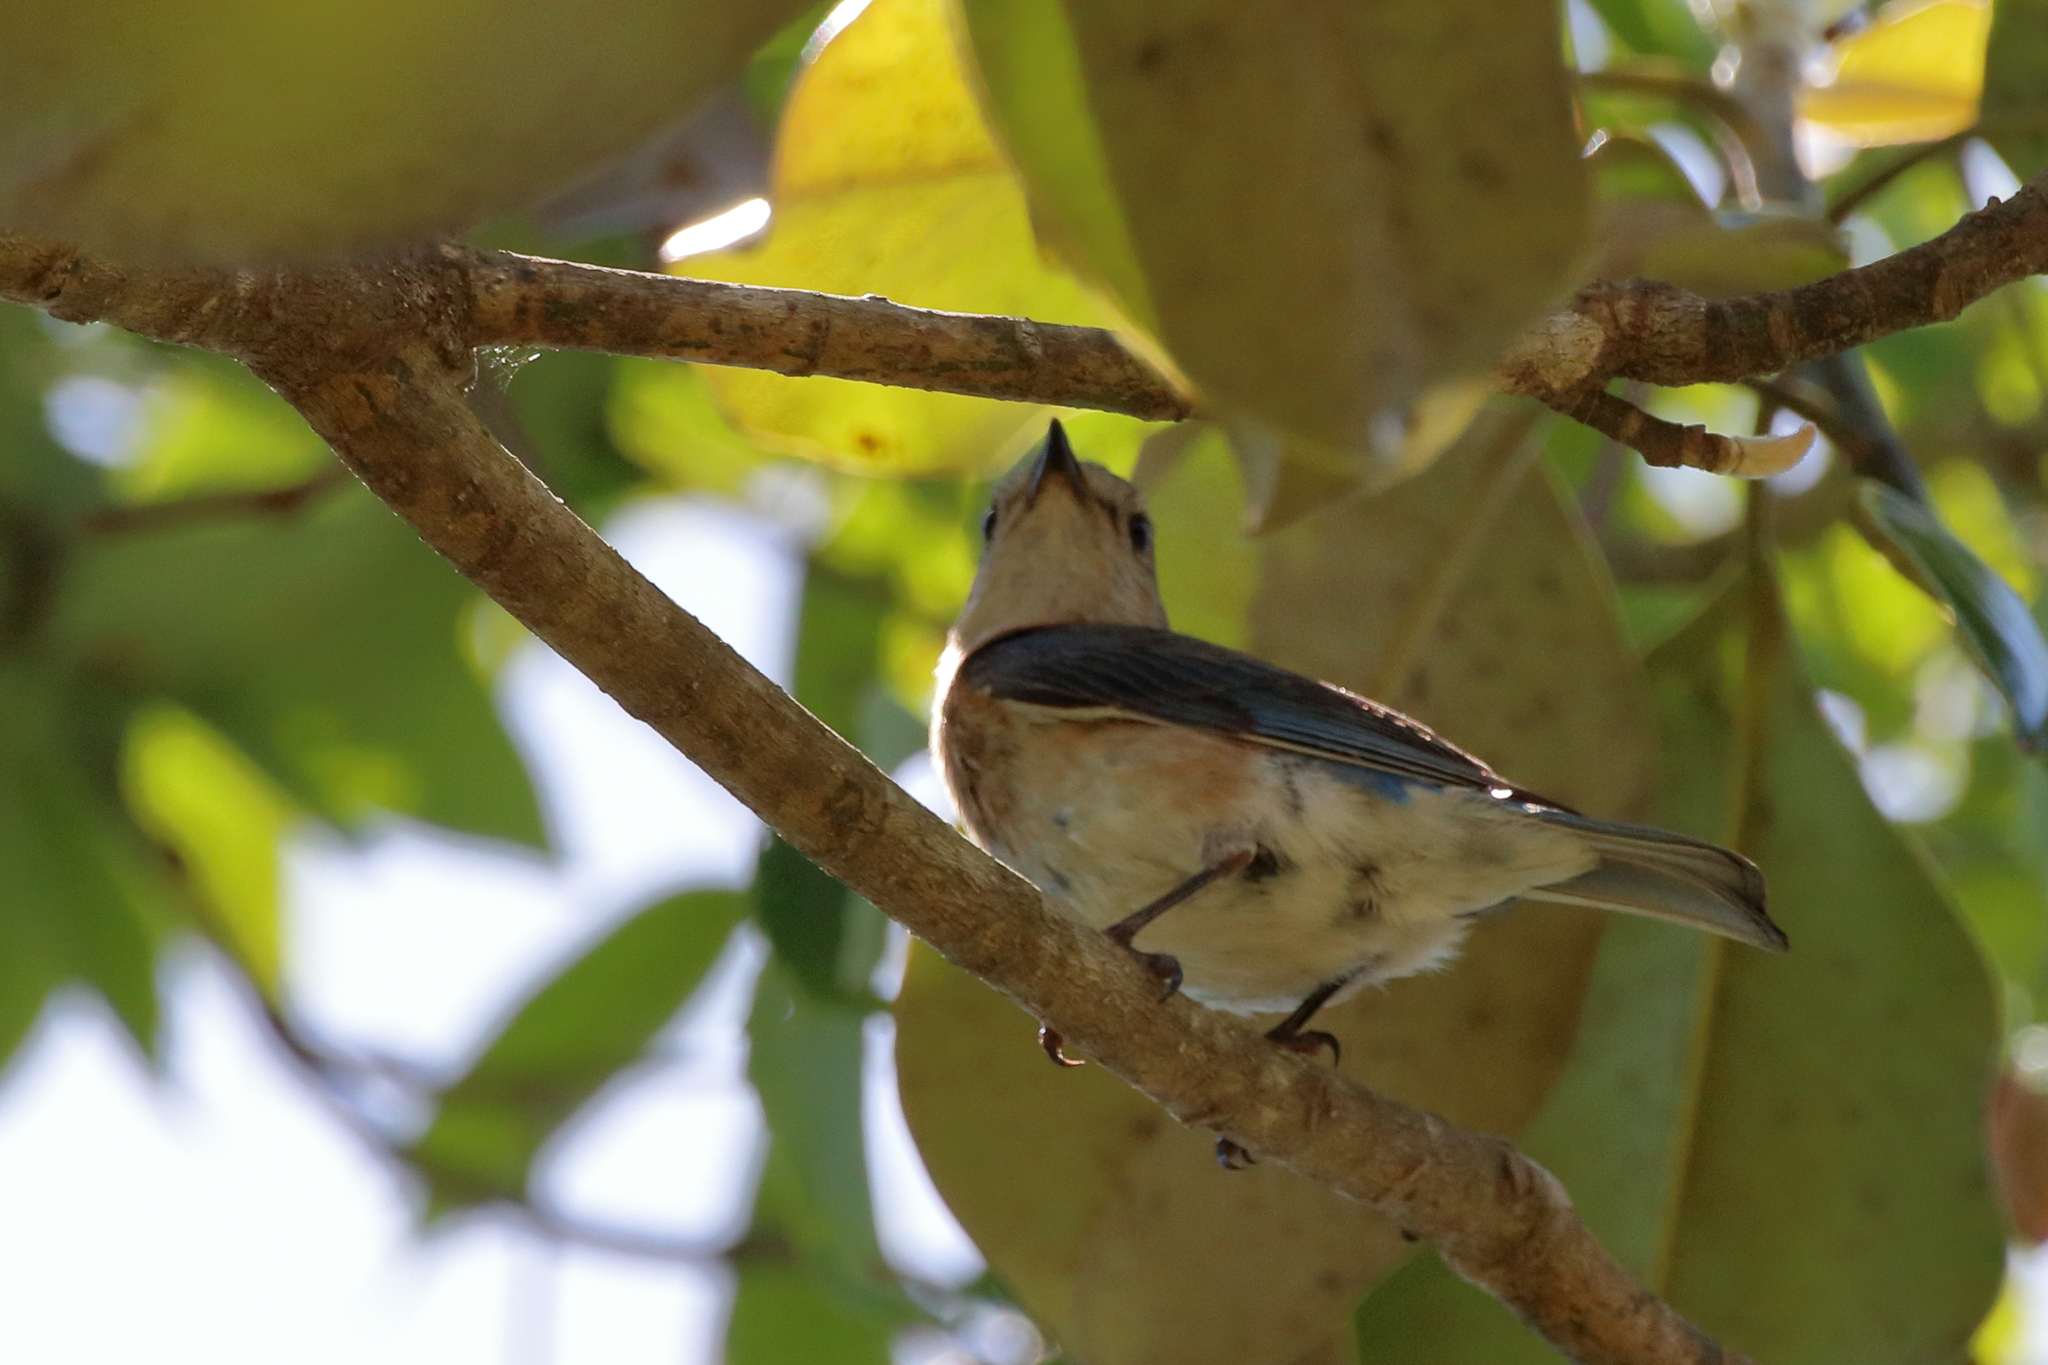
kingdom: Animalia
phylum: Chordata
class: Aves
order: Passeriformes
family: Turdidae
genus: Sialia
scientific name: Sialia sialis
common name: Eastern bluebird
